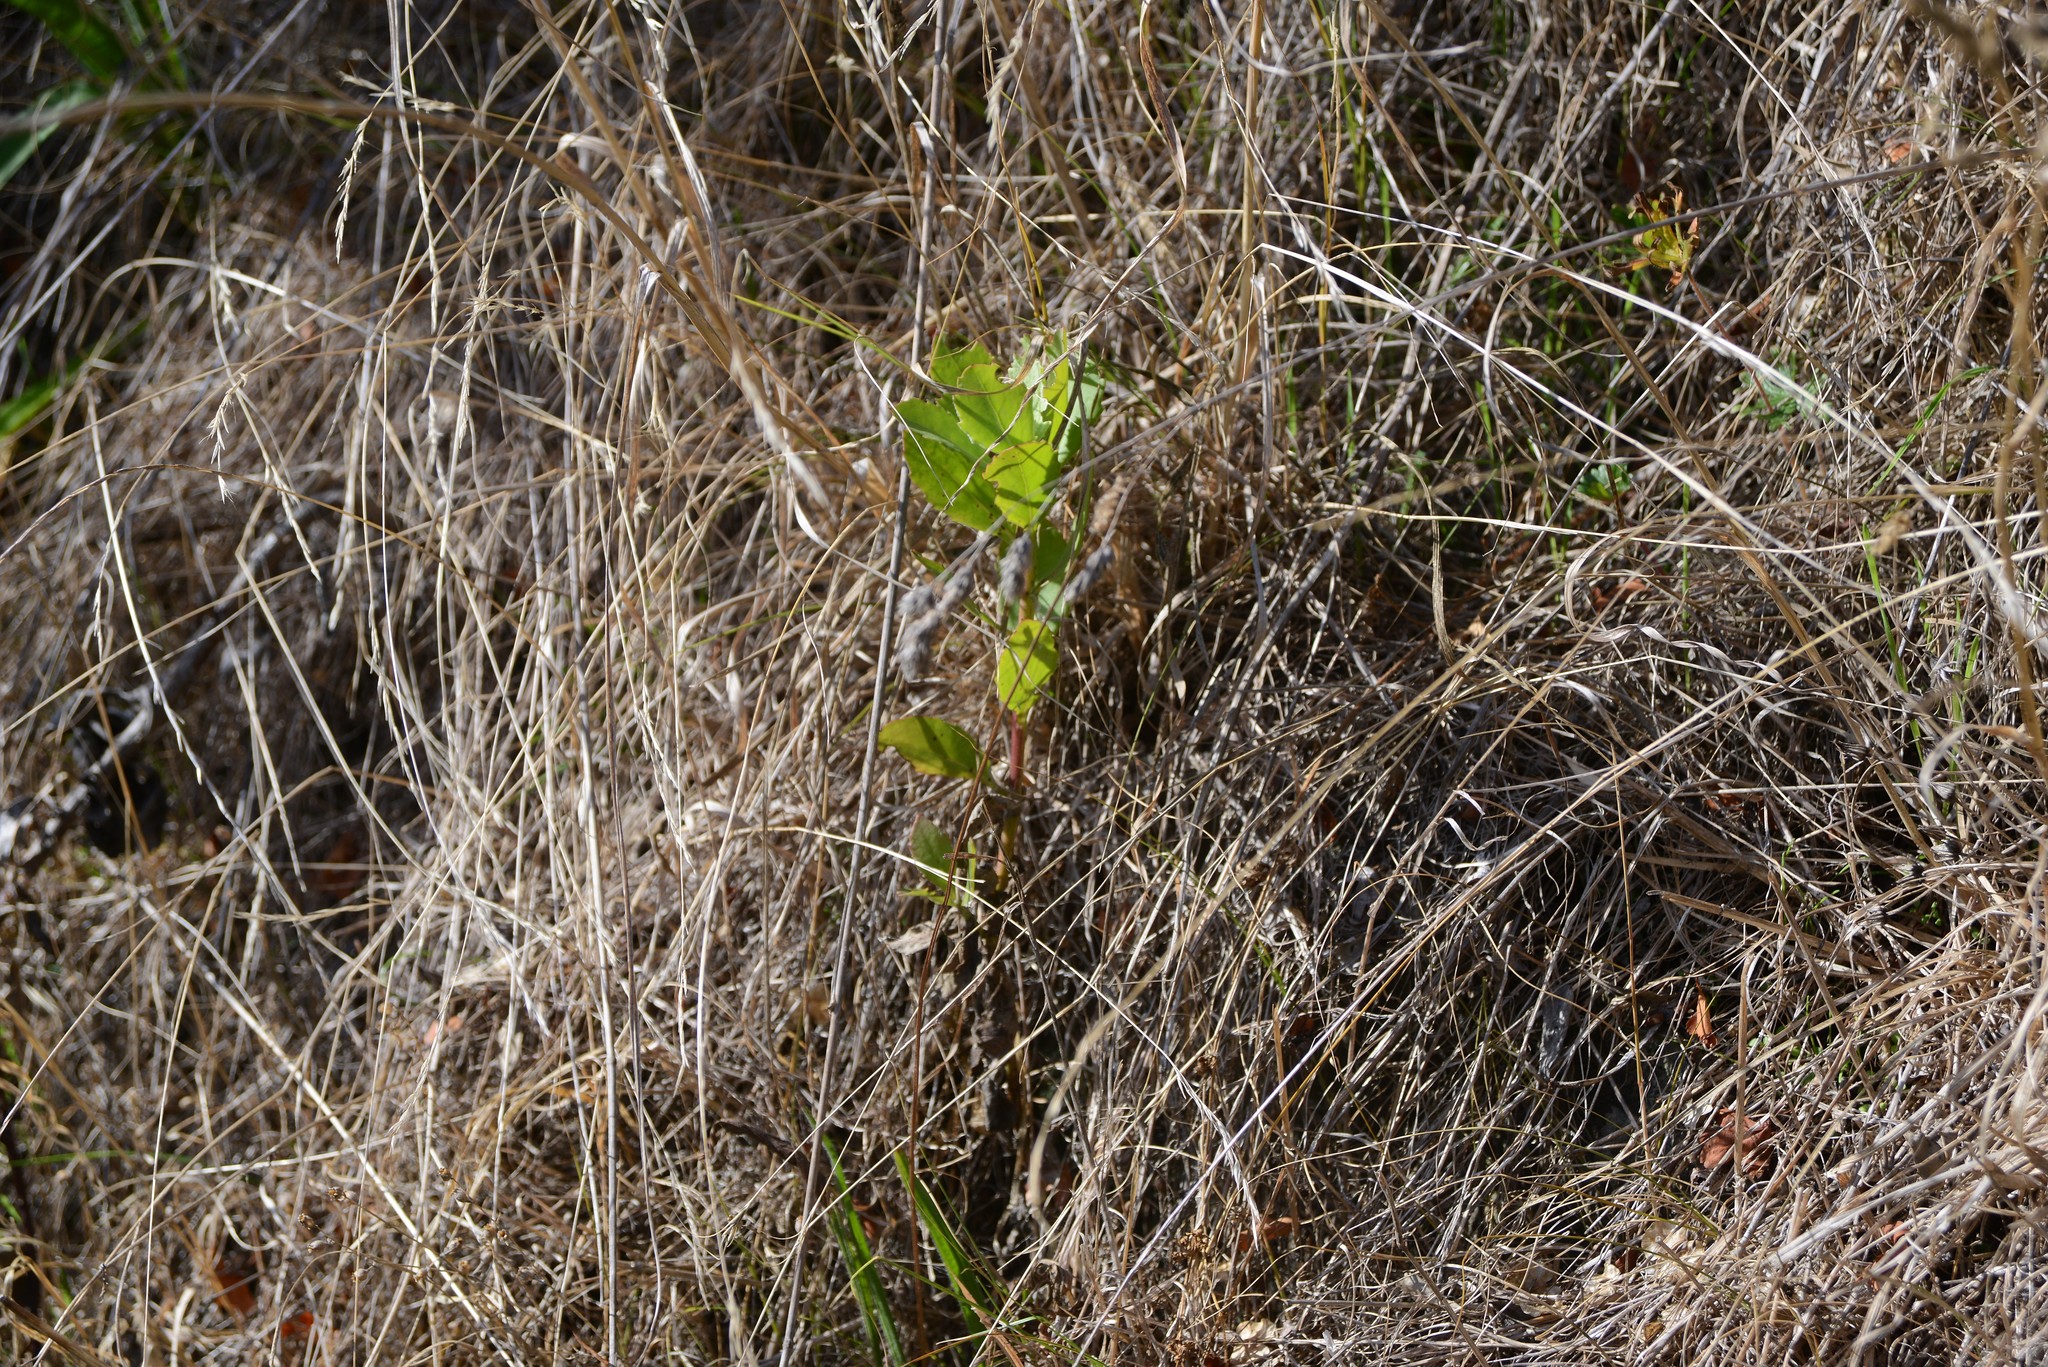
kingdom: Plantae
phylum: Tracheophyta
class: Magnoliopsida
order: Asterales
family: Asteraceae
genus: Osteospermum
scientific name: Osteospermum moniliferum
